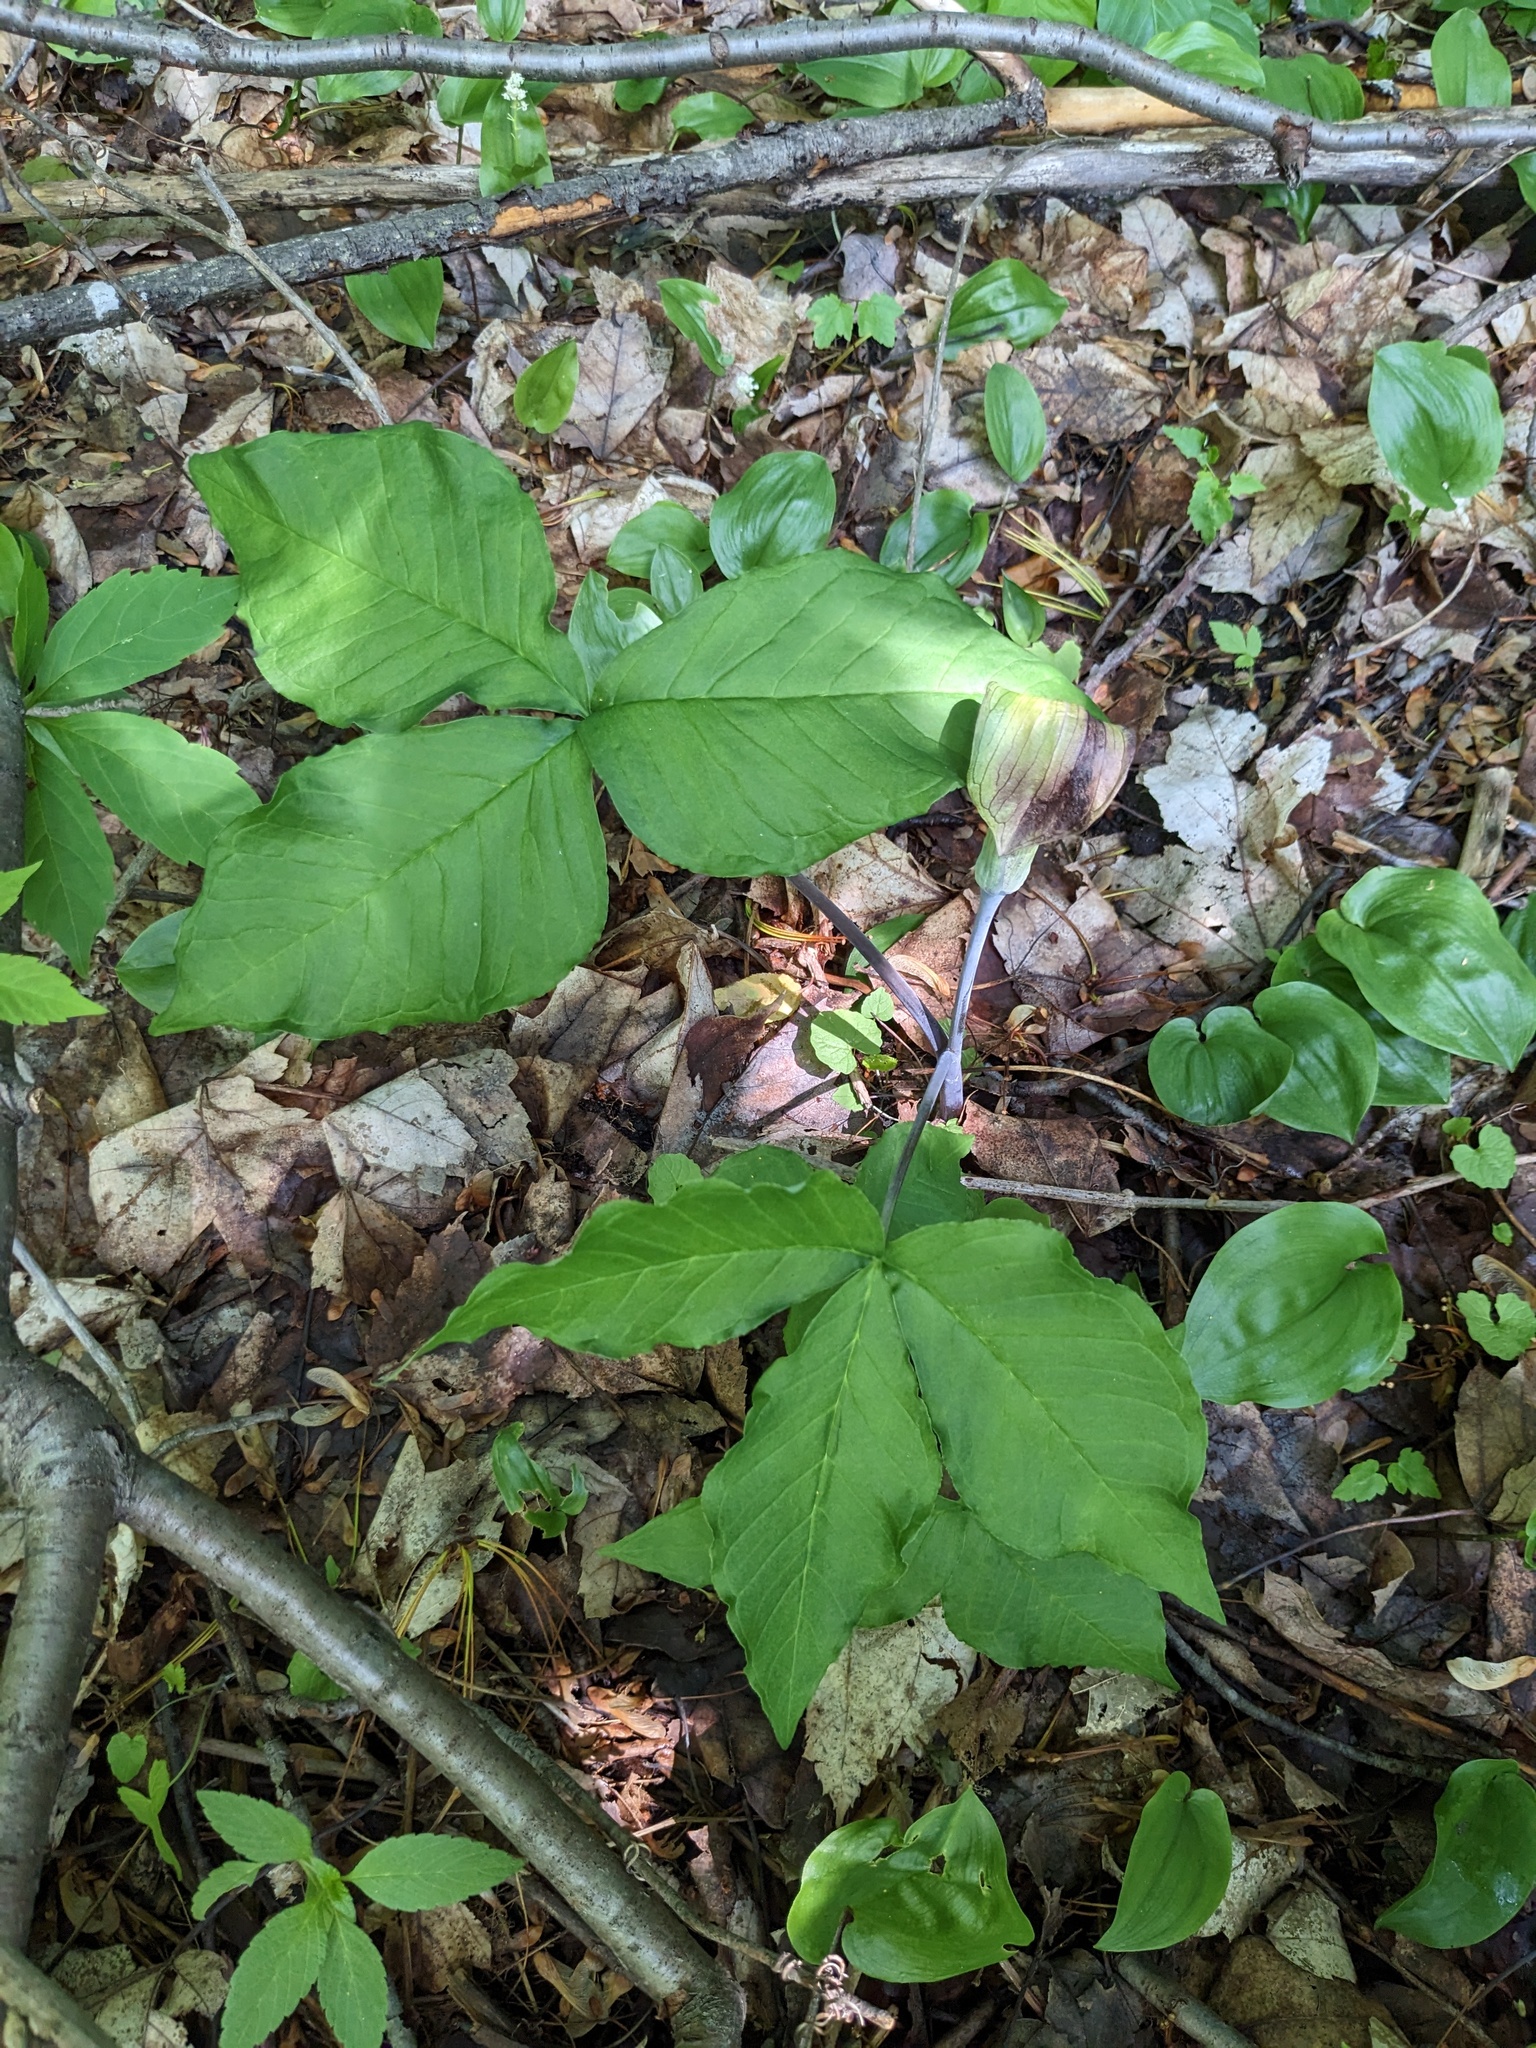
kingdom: Plantae
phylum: Tracheophyta
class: Liliopsida
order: Alismatales
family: Araceae
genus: Arisaema
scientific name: Arisaema triphyllum
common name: Jack-in-the-pulpit
